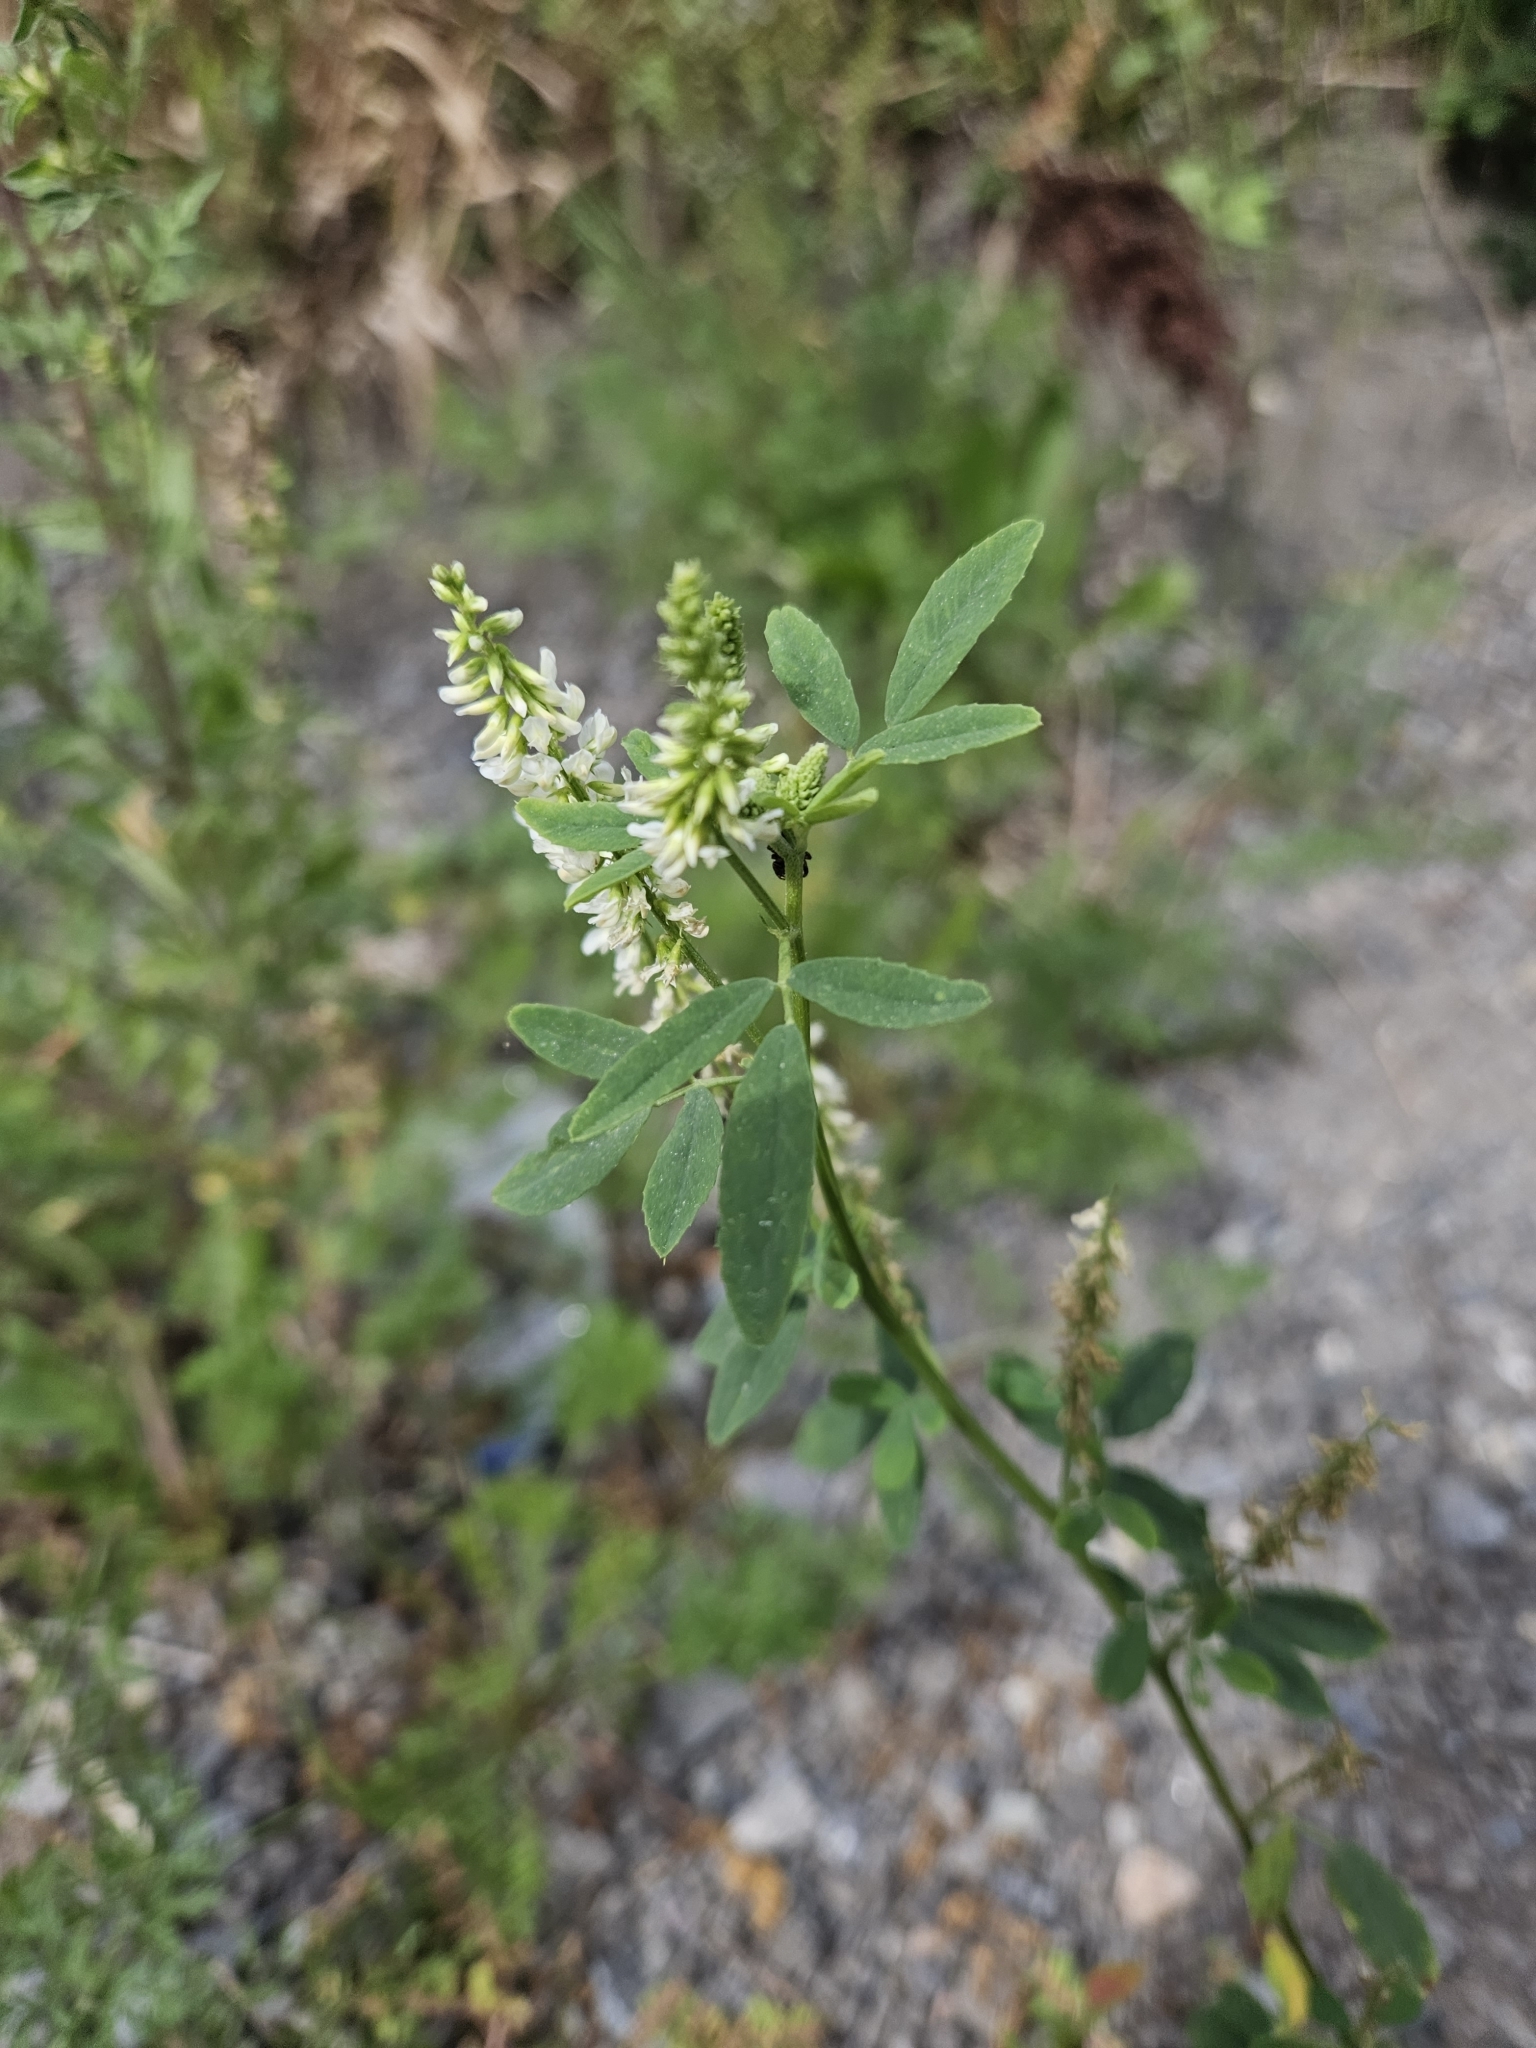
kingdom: Plantae
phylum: Tracheophyta
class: Magnoliopsida
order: Fabales
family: Fabaceae
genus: Melilotus
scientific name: Melilotus albus
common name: White melilot
